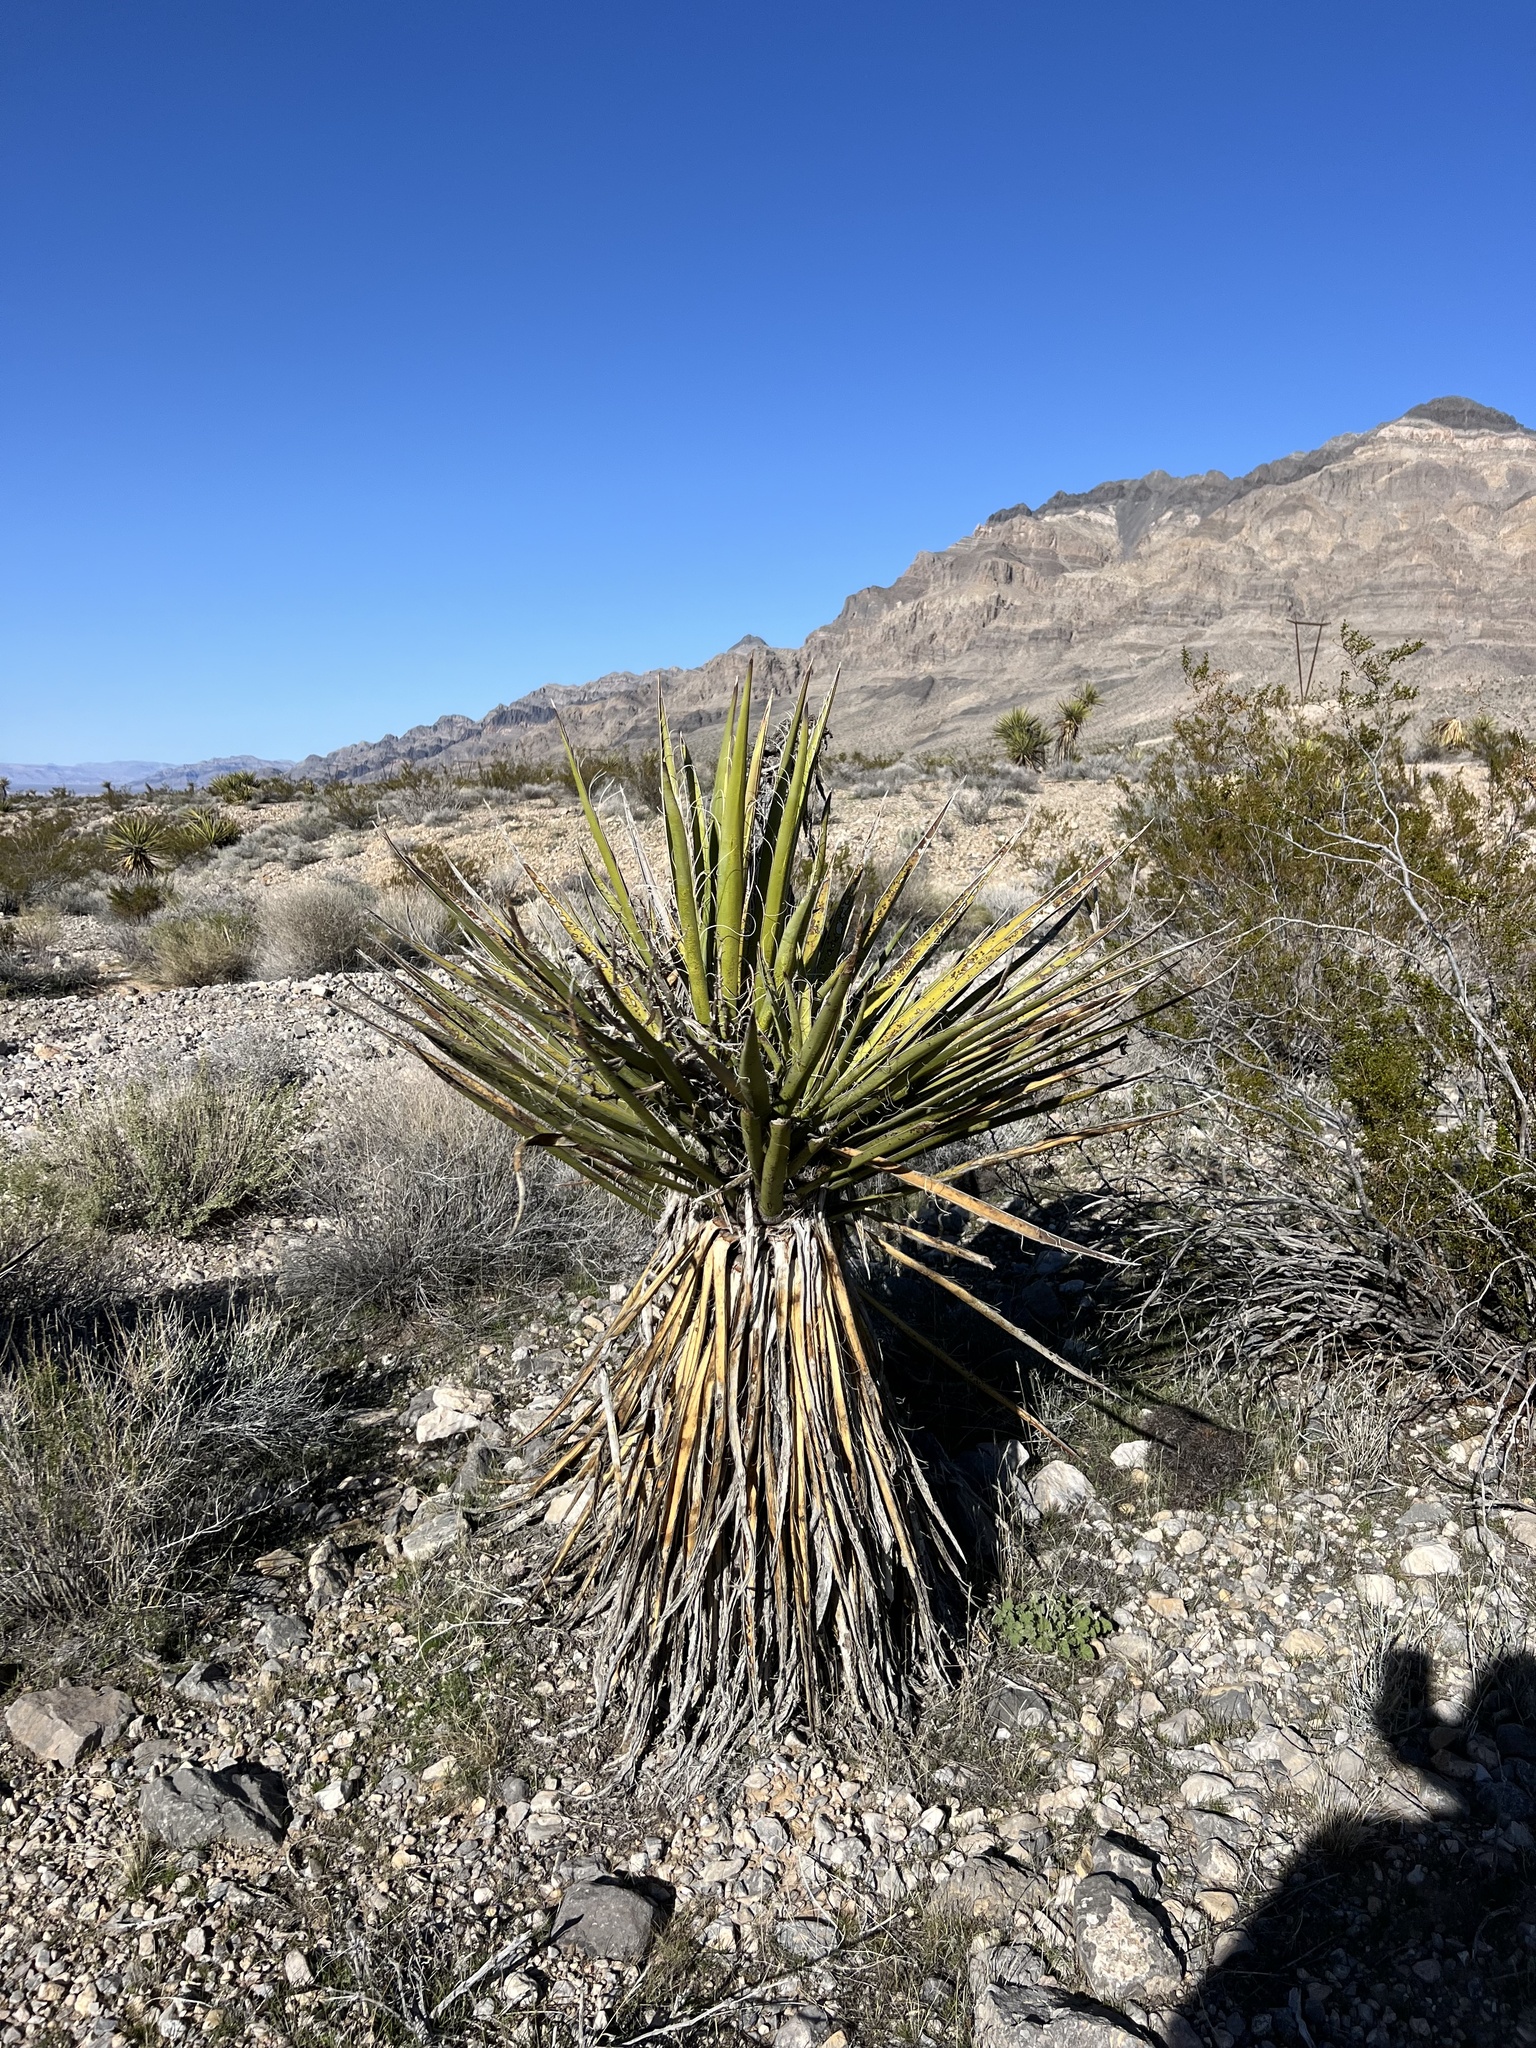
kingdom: Plantae
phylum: Tracheophyta
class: Liliopsida
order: Asparagales
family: Asparagaceae
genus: Yucca
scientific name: Yucca schidigera
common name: Mojave yucca
